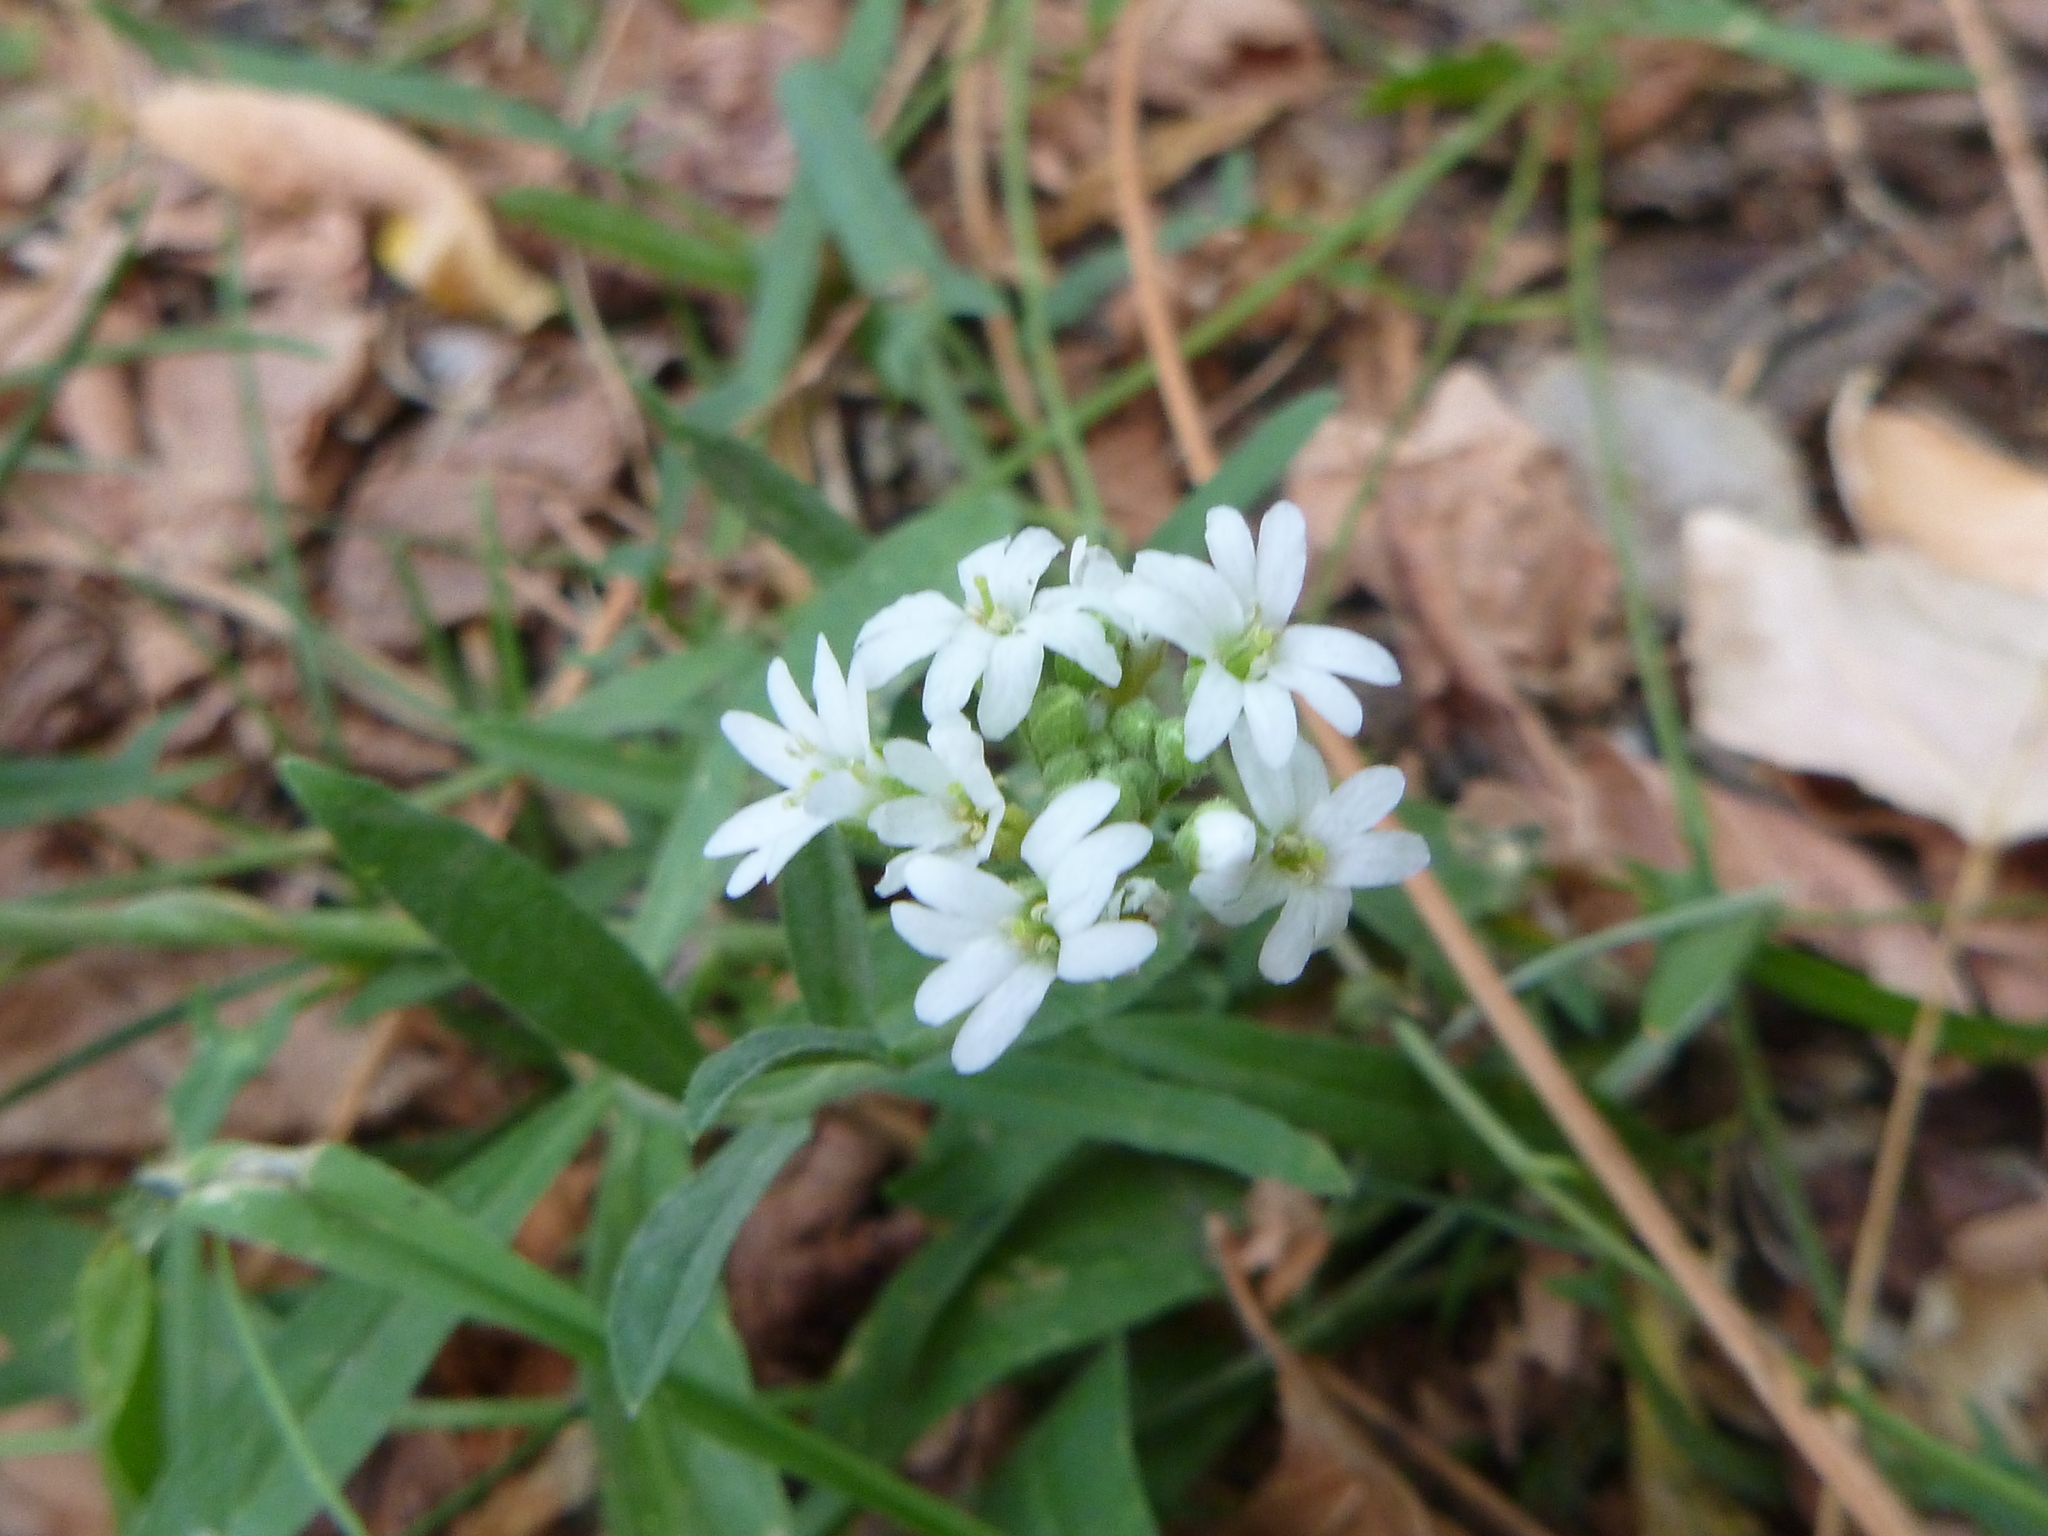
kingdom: Plantae
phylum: Tracheophyta
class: Magnoliopsida
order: Brassicales
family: Brassicaceae
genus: Berteroa
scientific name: Berteroa incana
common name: Hoary alison
